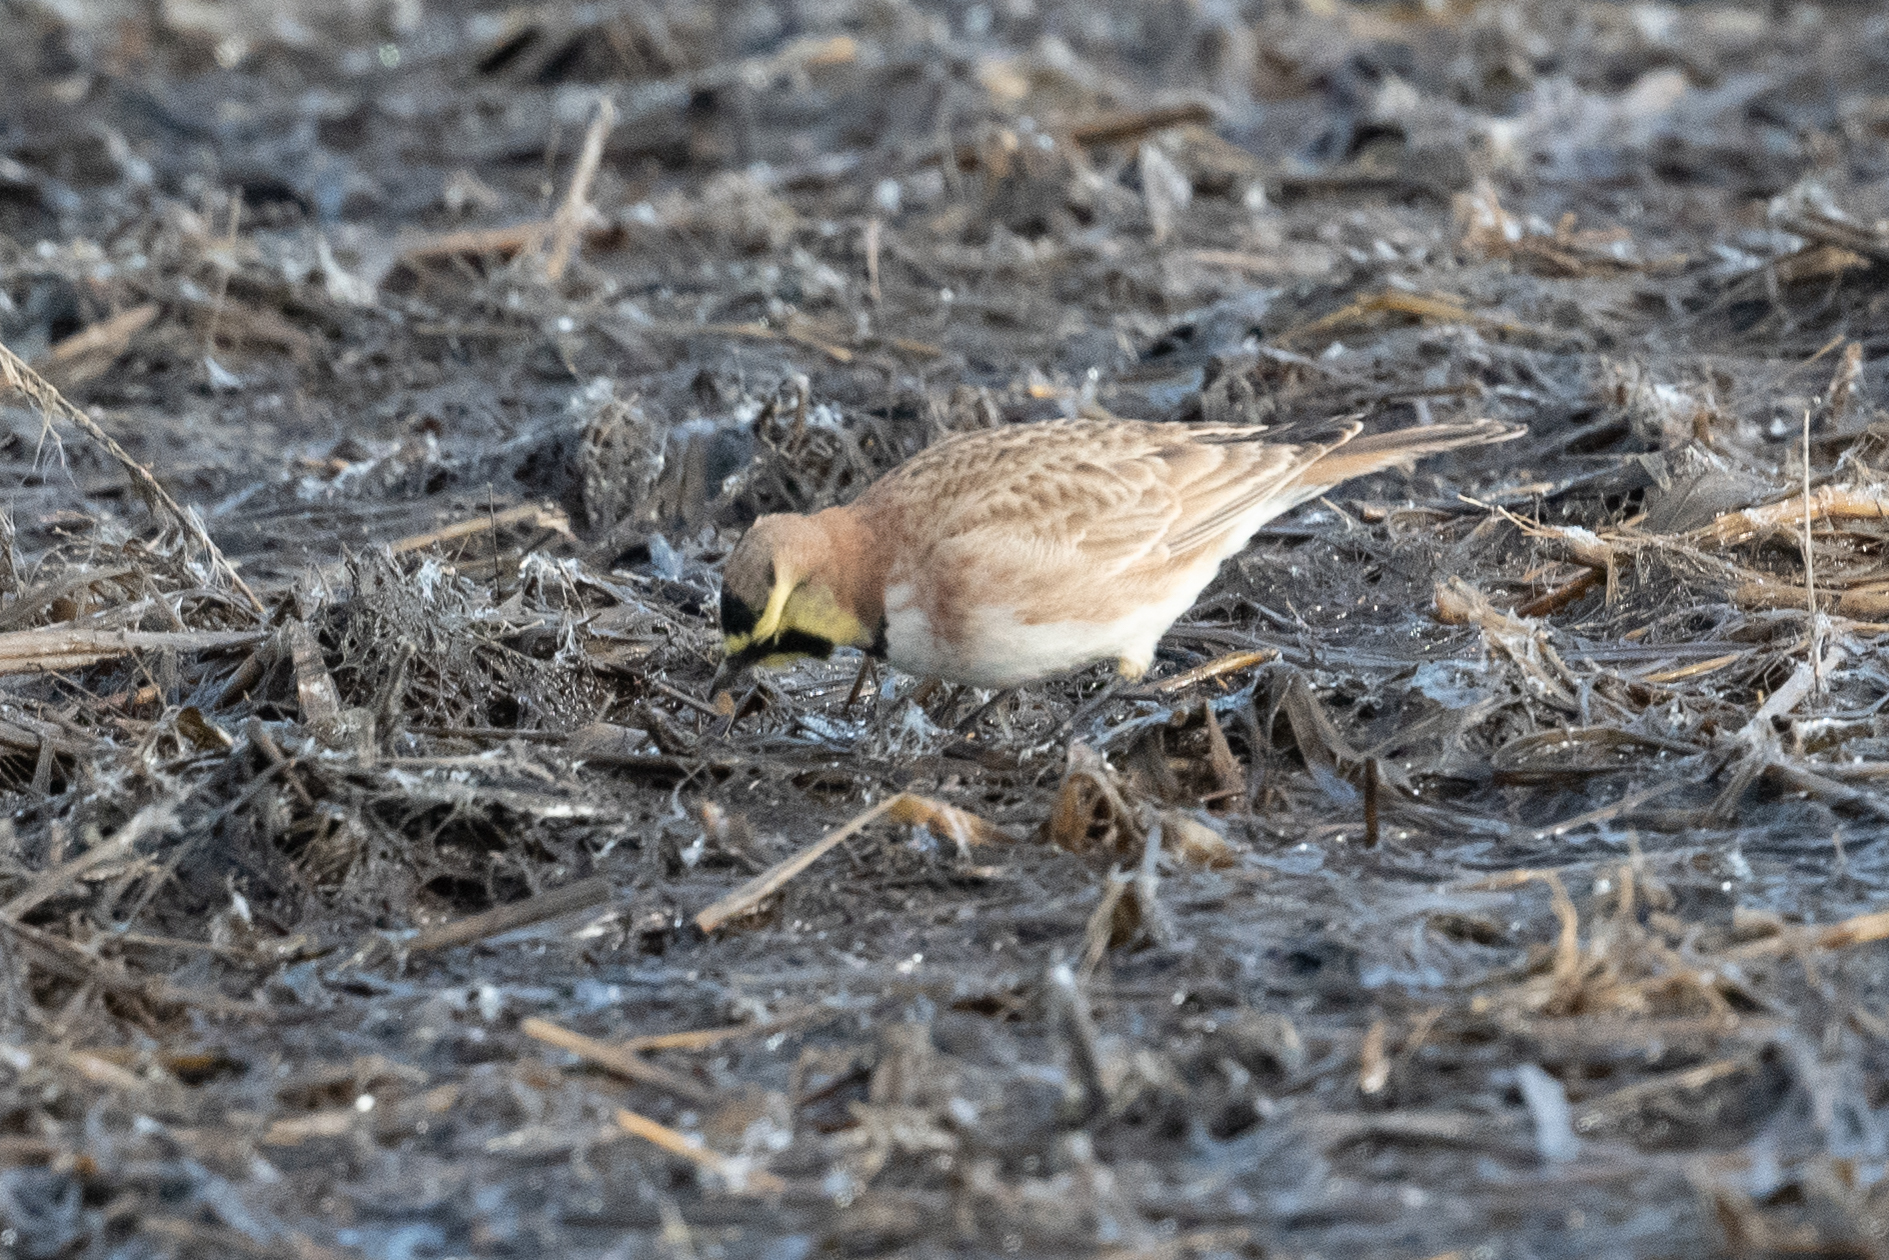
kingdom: Animalia
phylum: Chordata
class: Aves
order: Passeriformes
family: Alaudidae
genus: Eremophila
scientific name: Eremophila alpestris
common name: Horned lark
